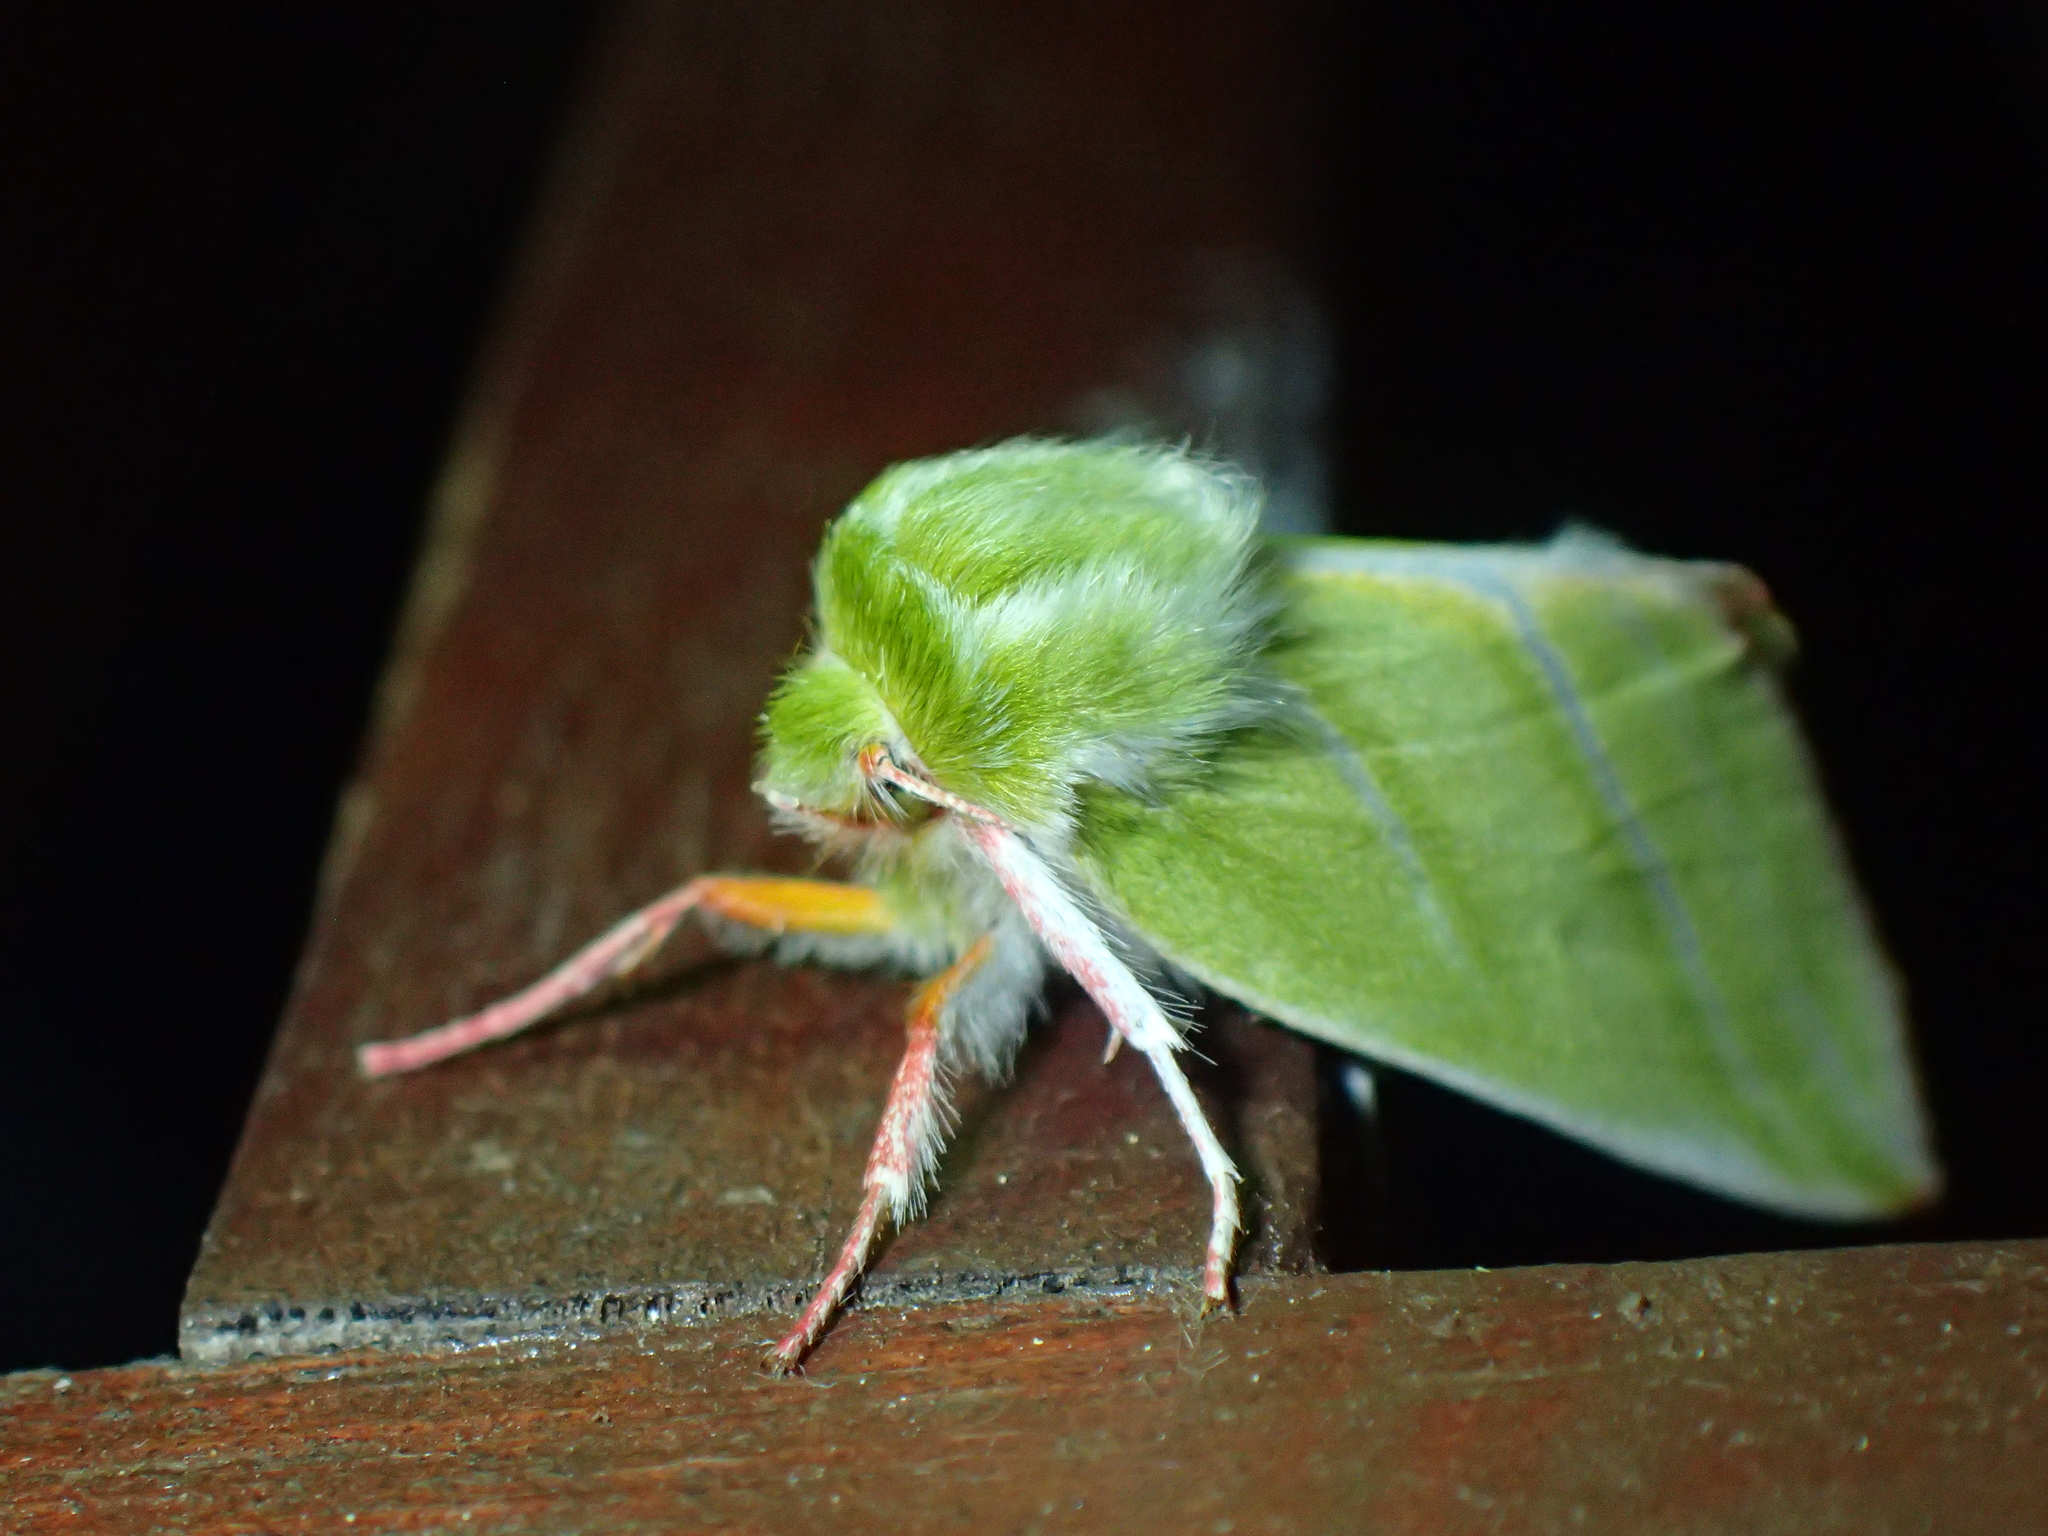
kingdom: Animalia
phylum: Arthropoda
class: Insecta
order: Lepidoptera
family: Nolidae
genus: Pseudoips
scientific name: Pseudoips prasinana
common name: Green silver-lines
